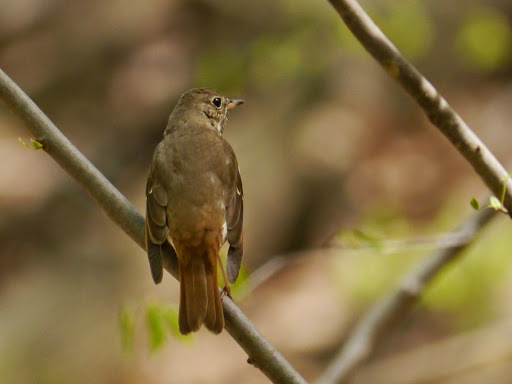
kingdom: Animalia
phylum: Chordata
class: Aves
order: Passeriformes
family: Turdidae
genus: Catharus
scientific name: Catharus guttatus
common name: Hermit thrush
